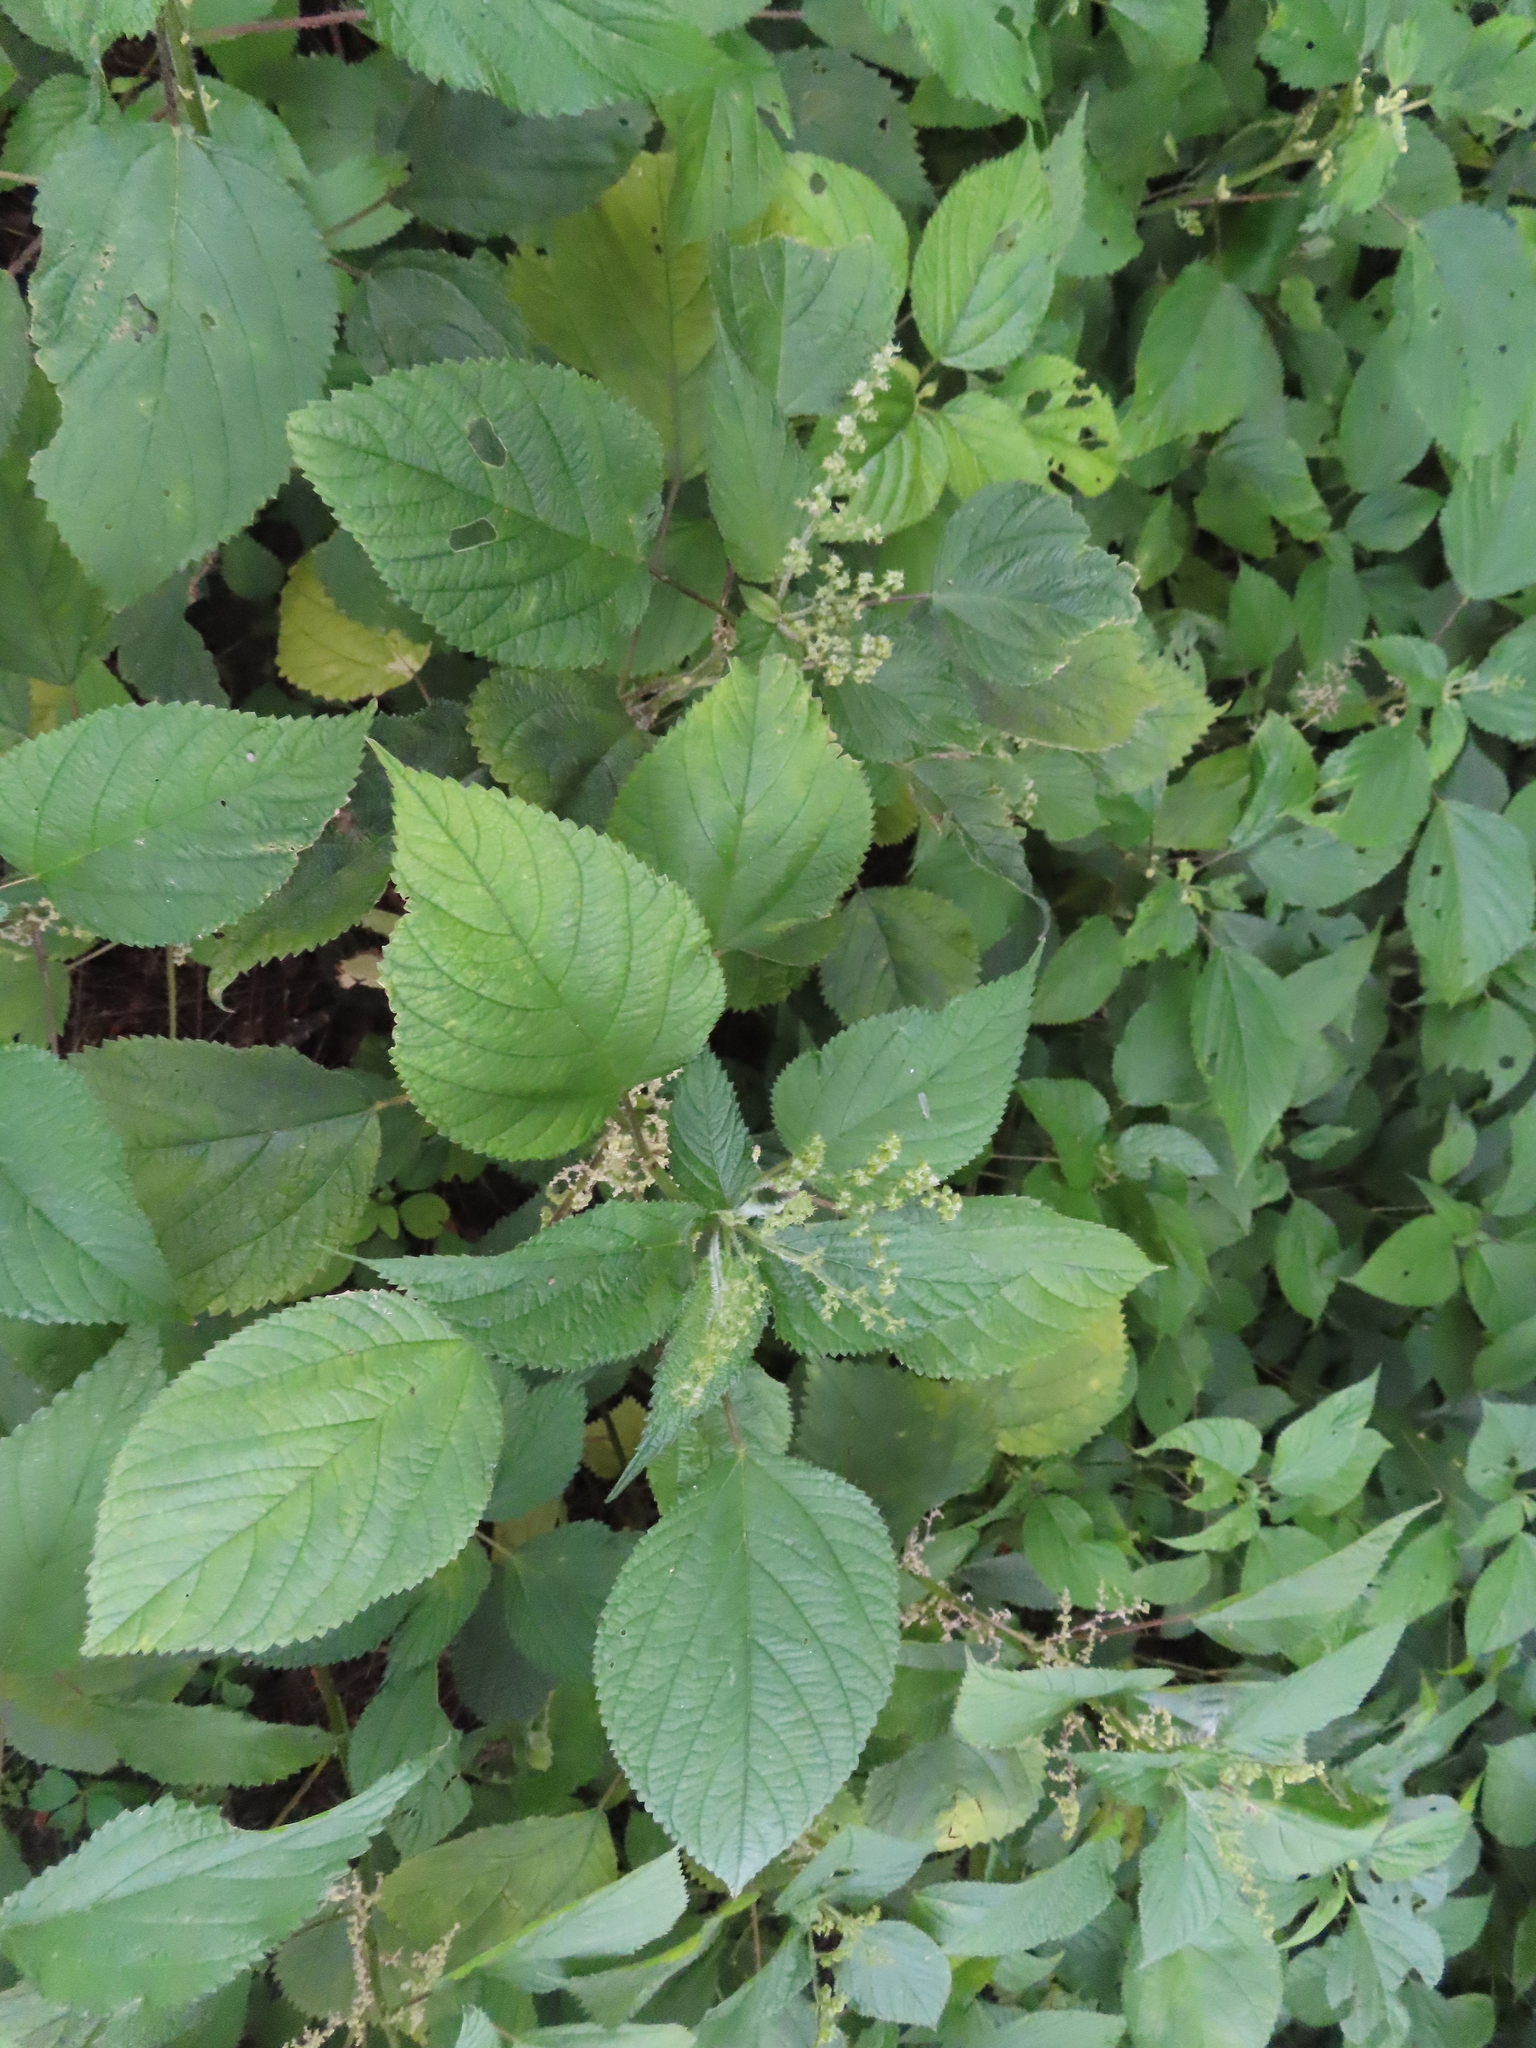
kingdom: Plantae
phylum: Tracheophyta
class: Magnoliopsida
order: Rosales
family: Urticaceae
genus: Laportea
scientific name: Laportea canadensis
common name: Canada nettle
